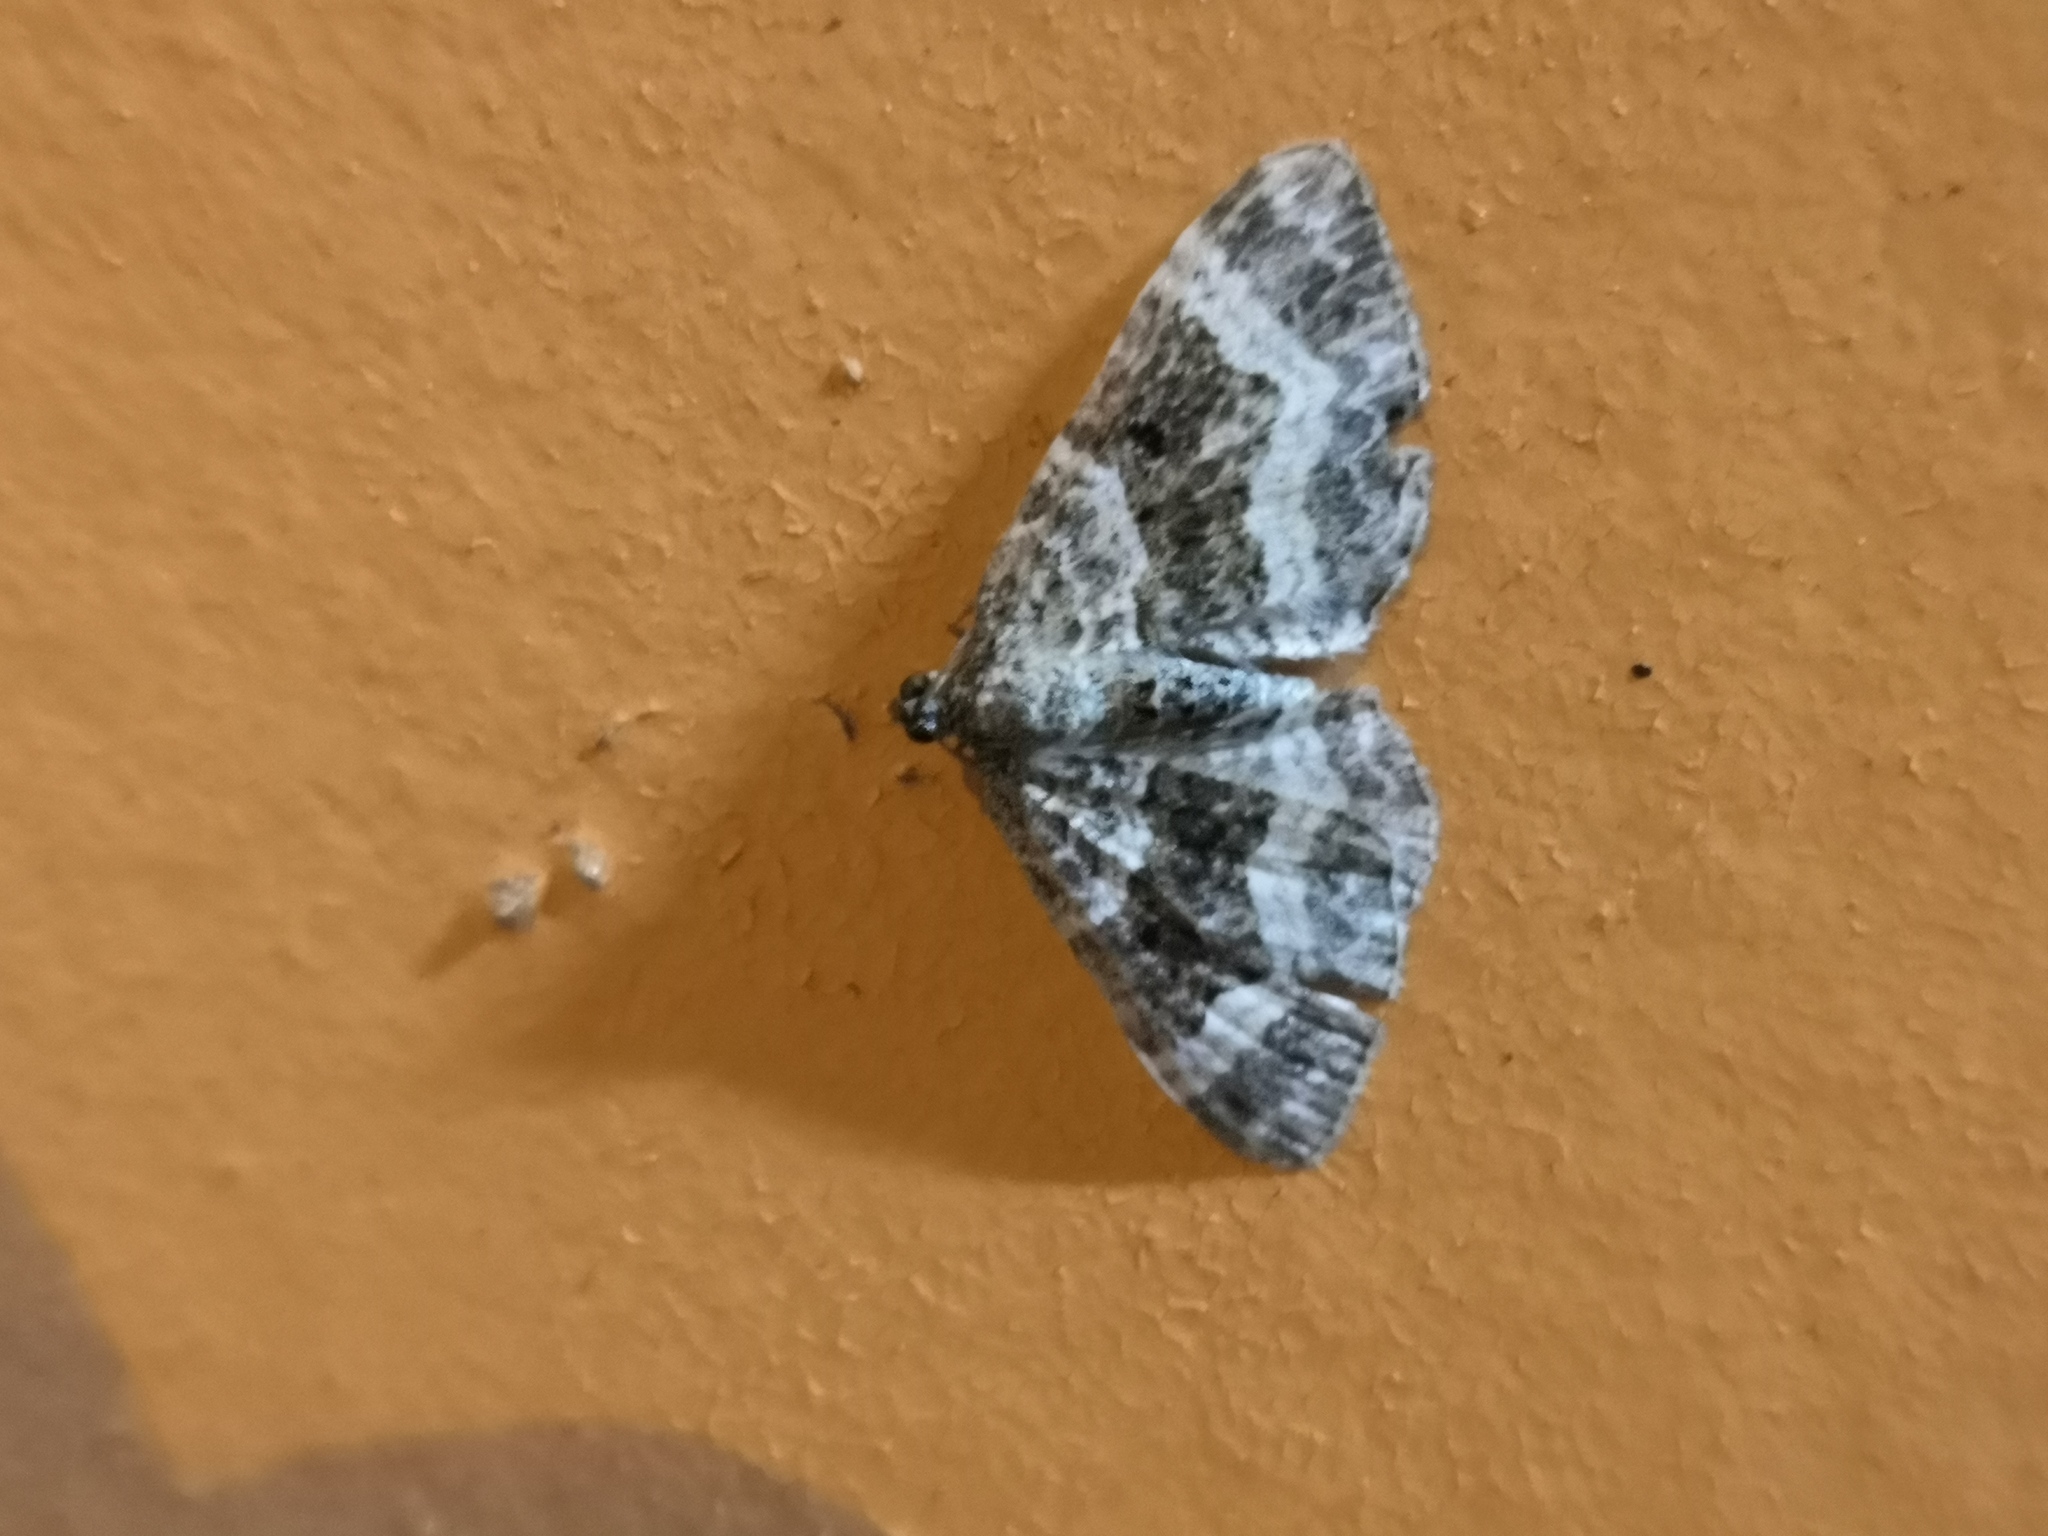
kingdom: Animalia
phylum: Arthropoda
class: Insecta
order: Lepidoptera
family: Geometridae
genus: Epirrhoe
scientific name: Epirrhoe alternata
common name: Common carpet
